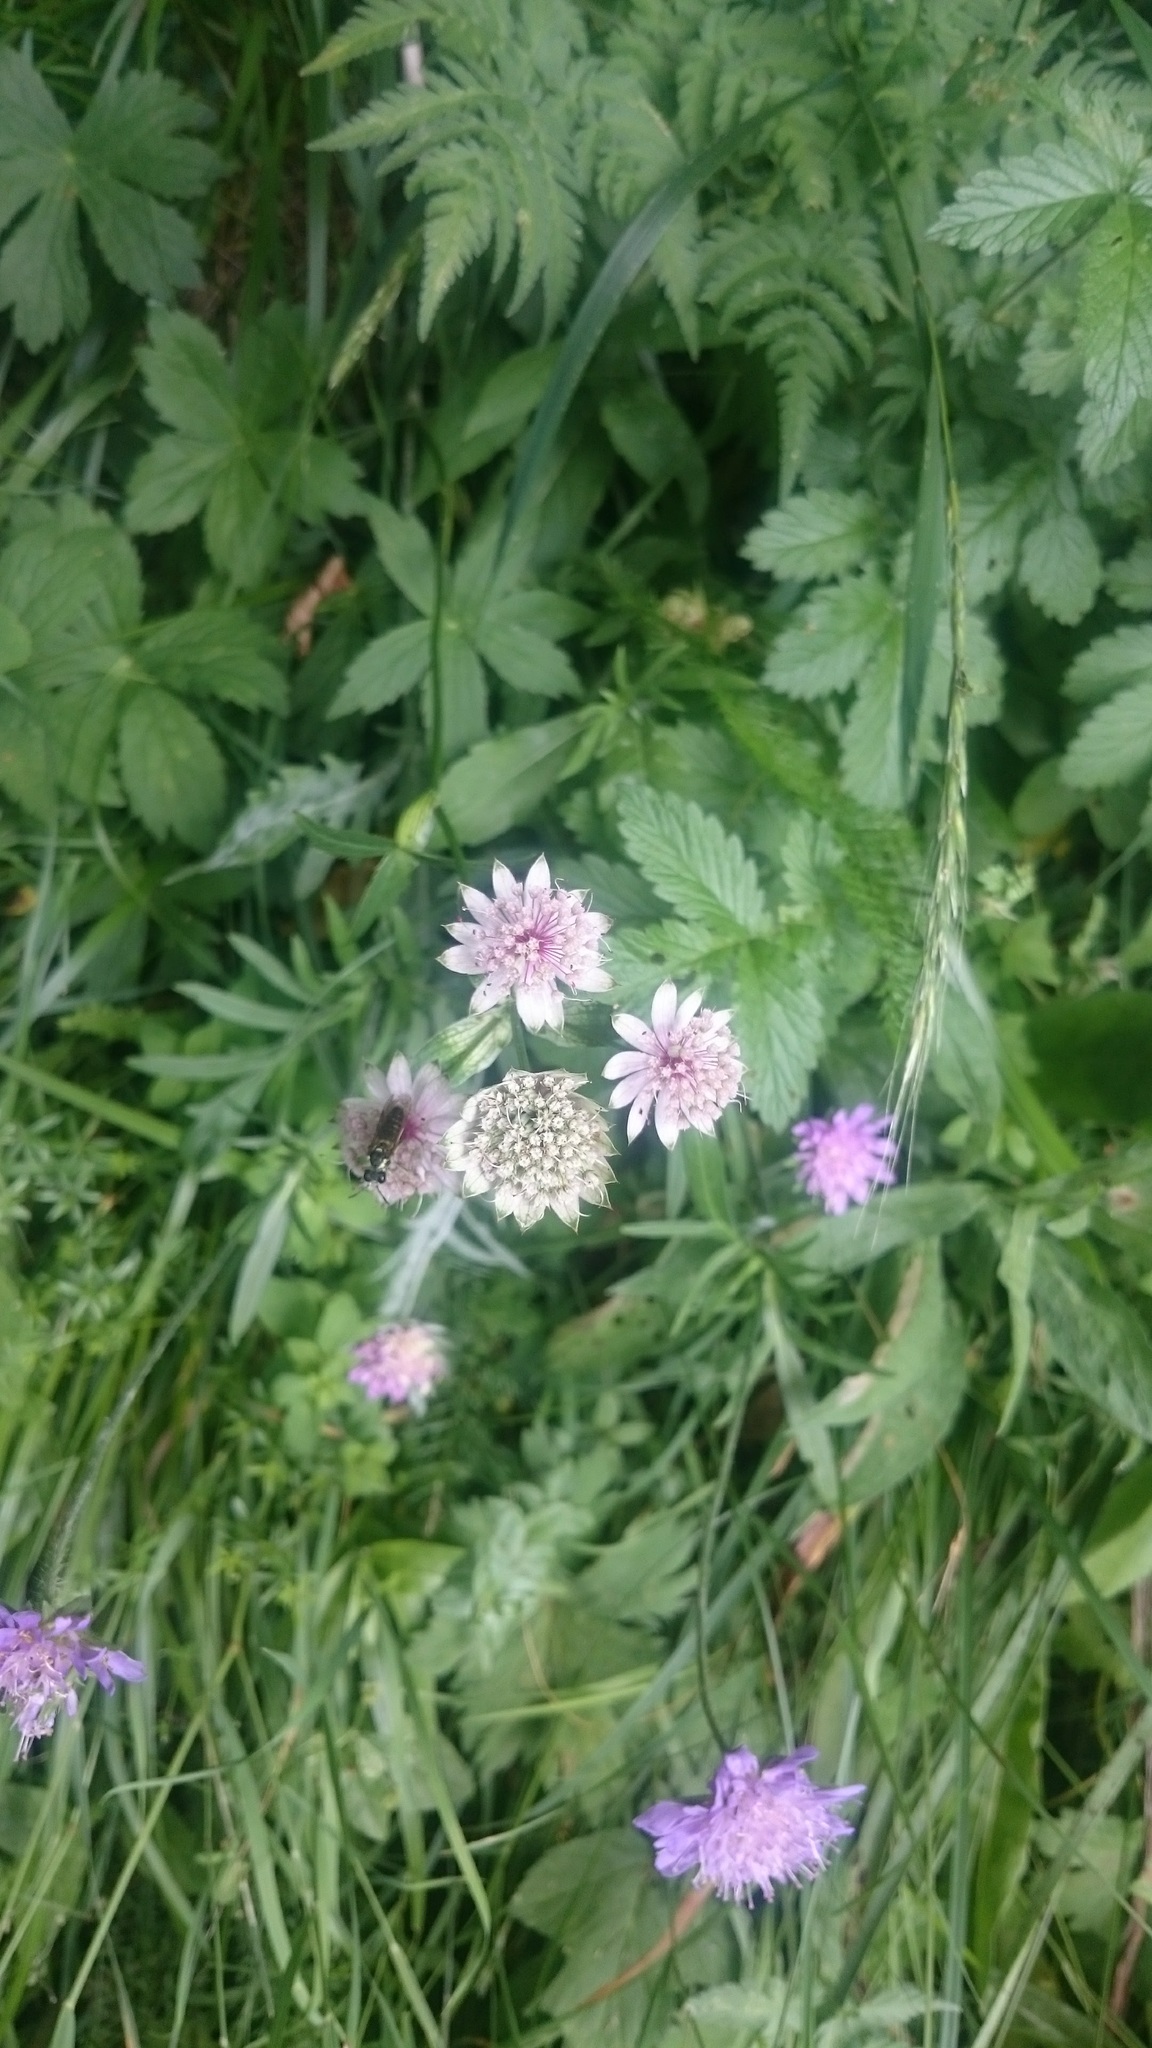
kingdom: Plantae
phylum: Tracheophyta
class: Magnoliopsida
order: Apiales
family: Apiaceae
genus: Astrantia
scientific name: Astrantia major
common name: Greater masterwort
